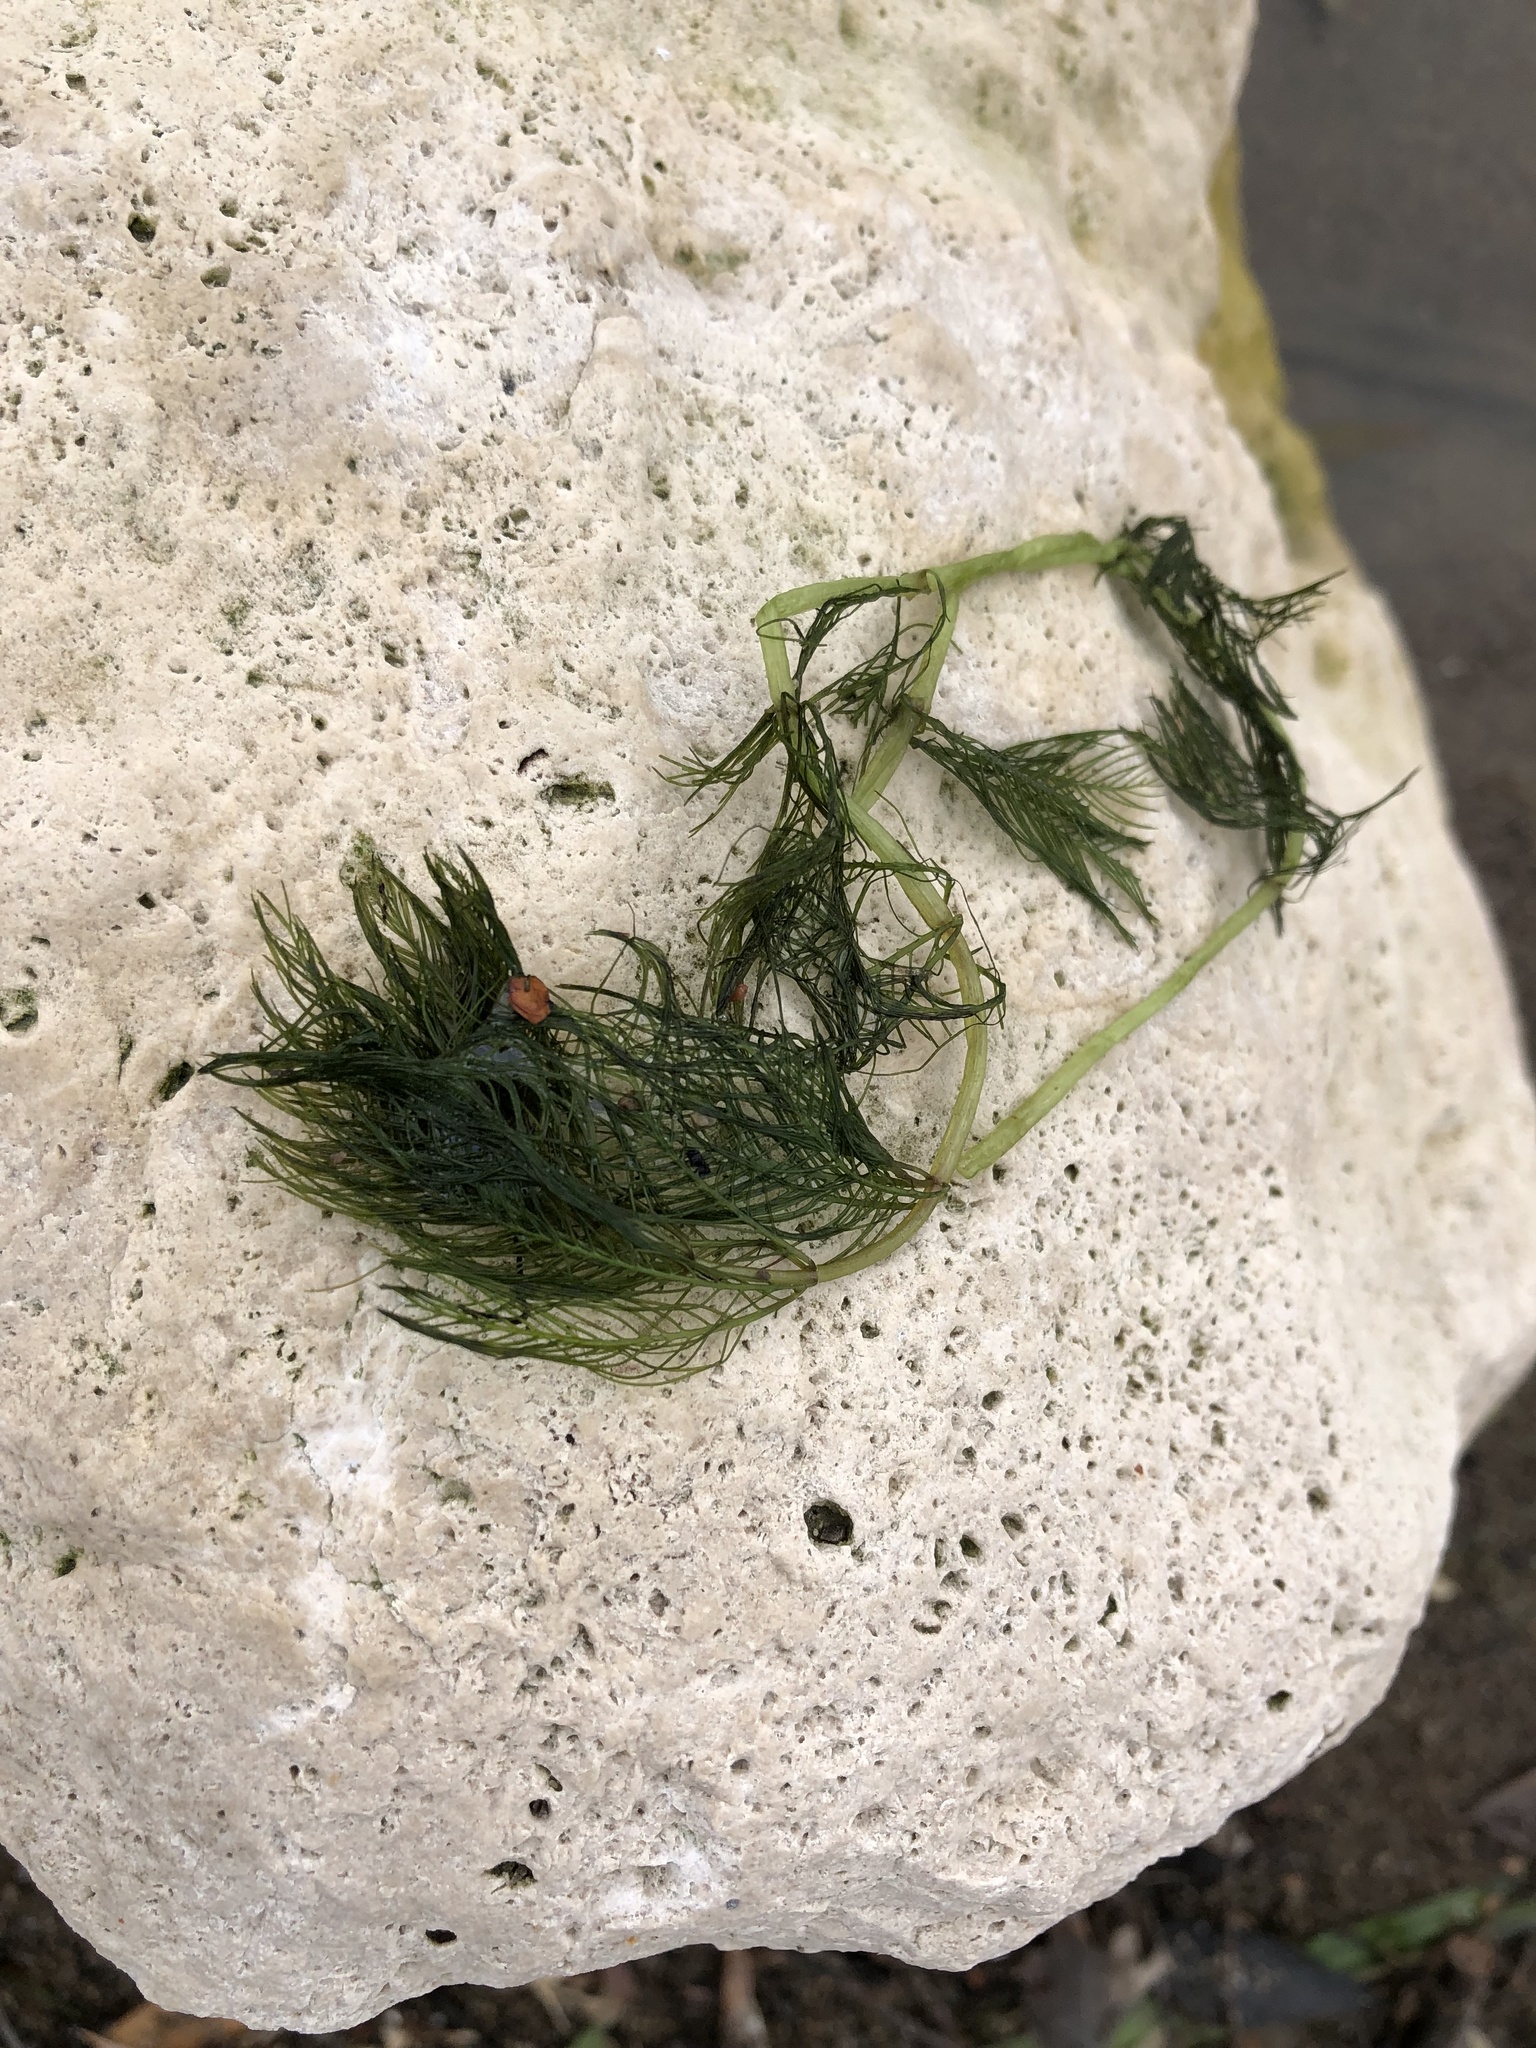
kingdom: Plantae
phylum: Tracheophyta
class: Magnoliopsida
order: Saxifragales
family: Haloragaceae
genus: Myriophyllum
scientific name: Myriophyllum spicatum
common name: Spiked water-milfoil
